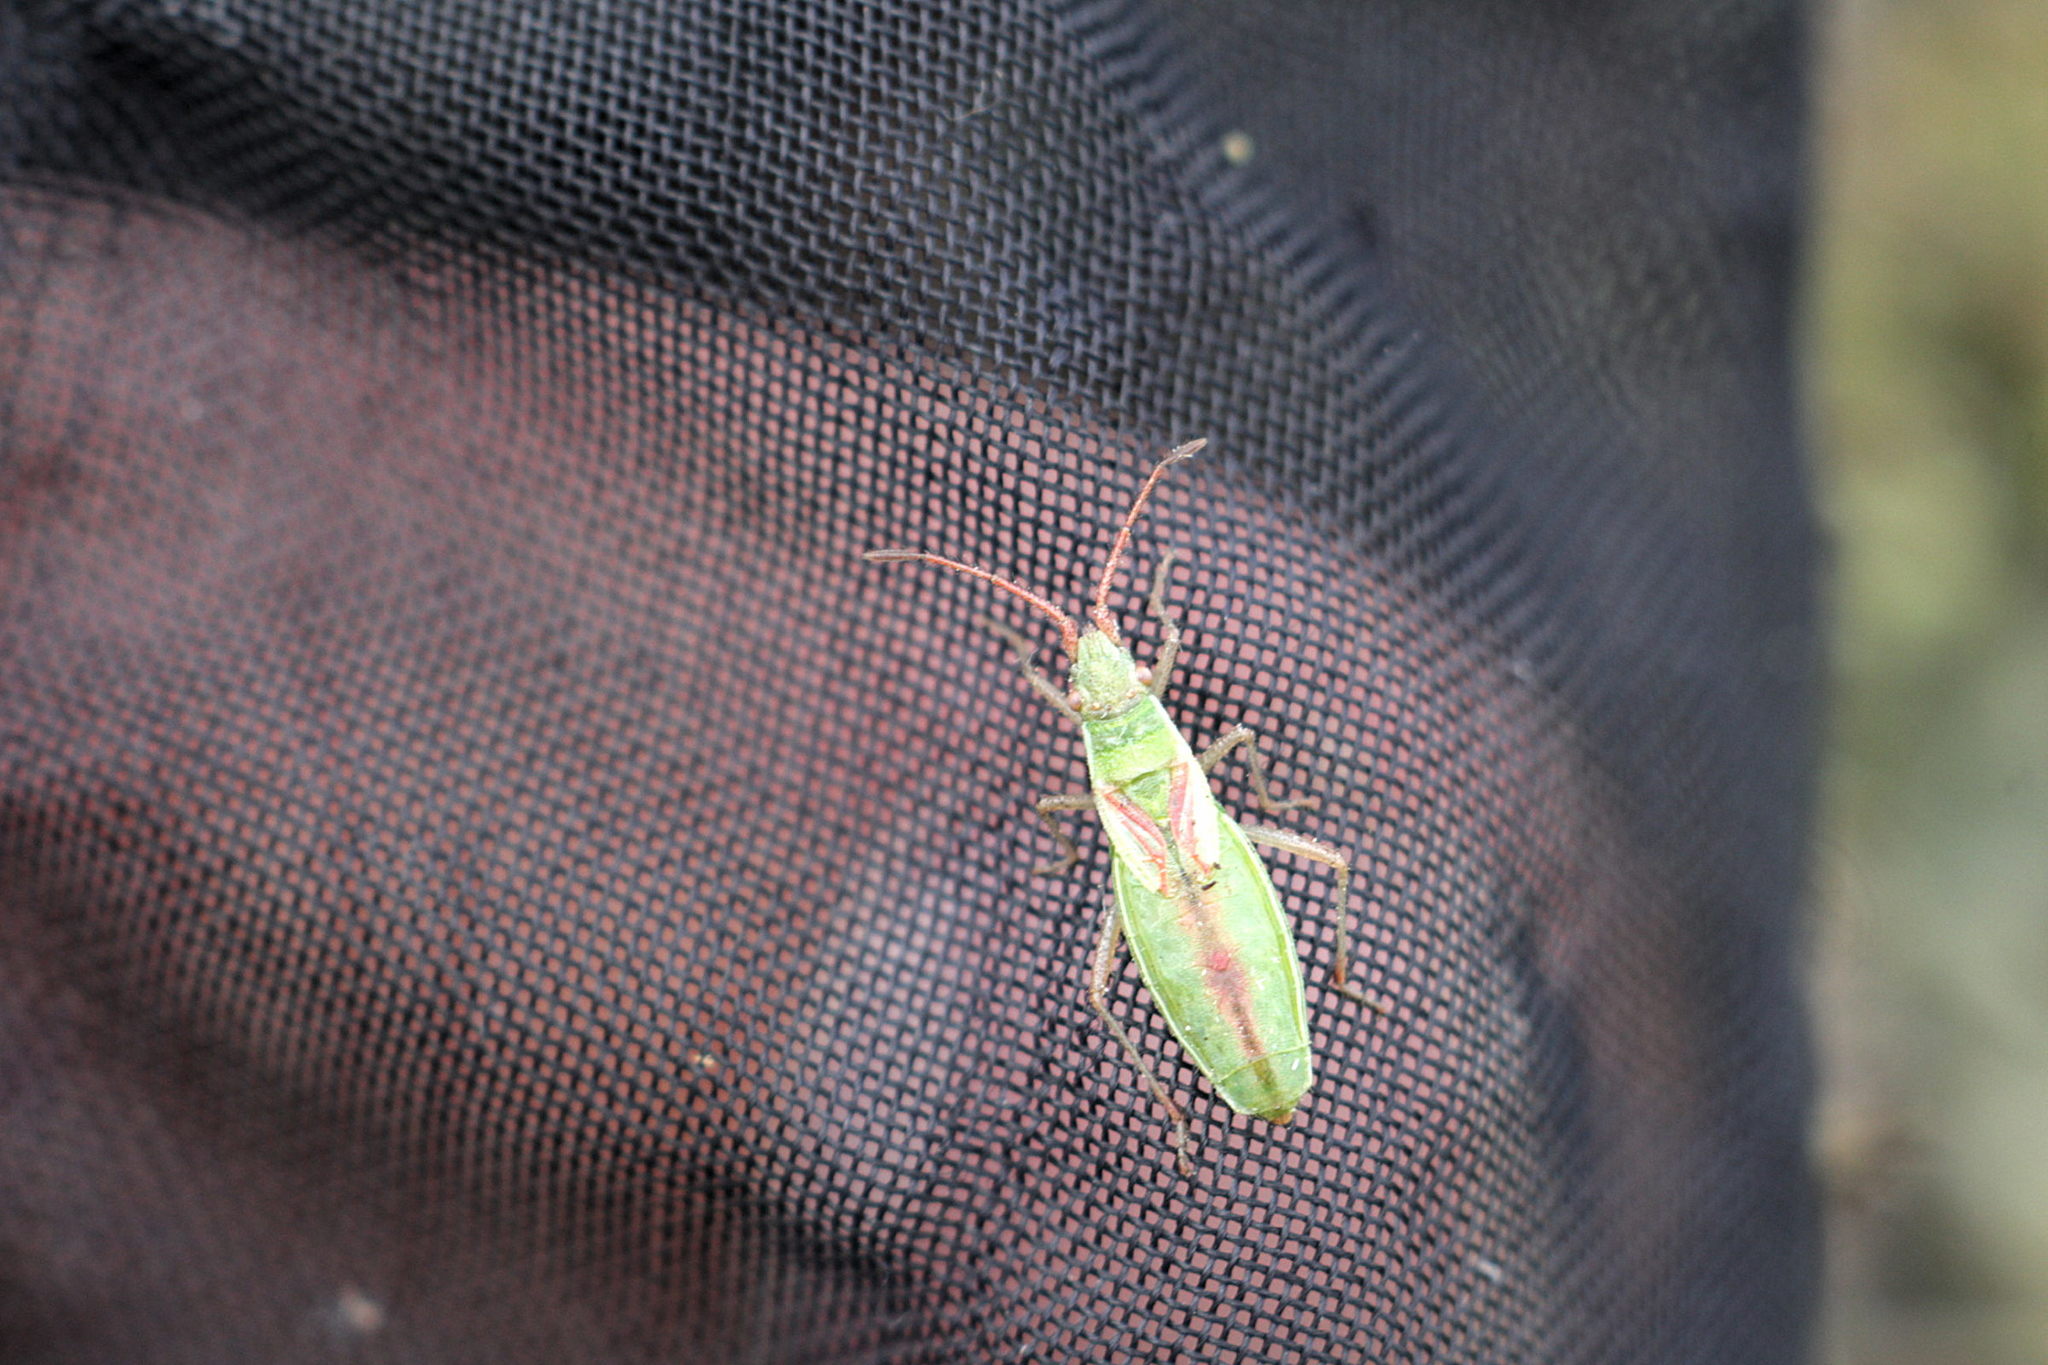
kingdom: Animalia
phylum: Arthropoda
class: Insecta
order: Hemiptera
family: Rhopalidae
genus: Myrmus
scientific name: Myrmus miriformis
